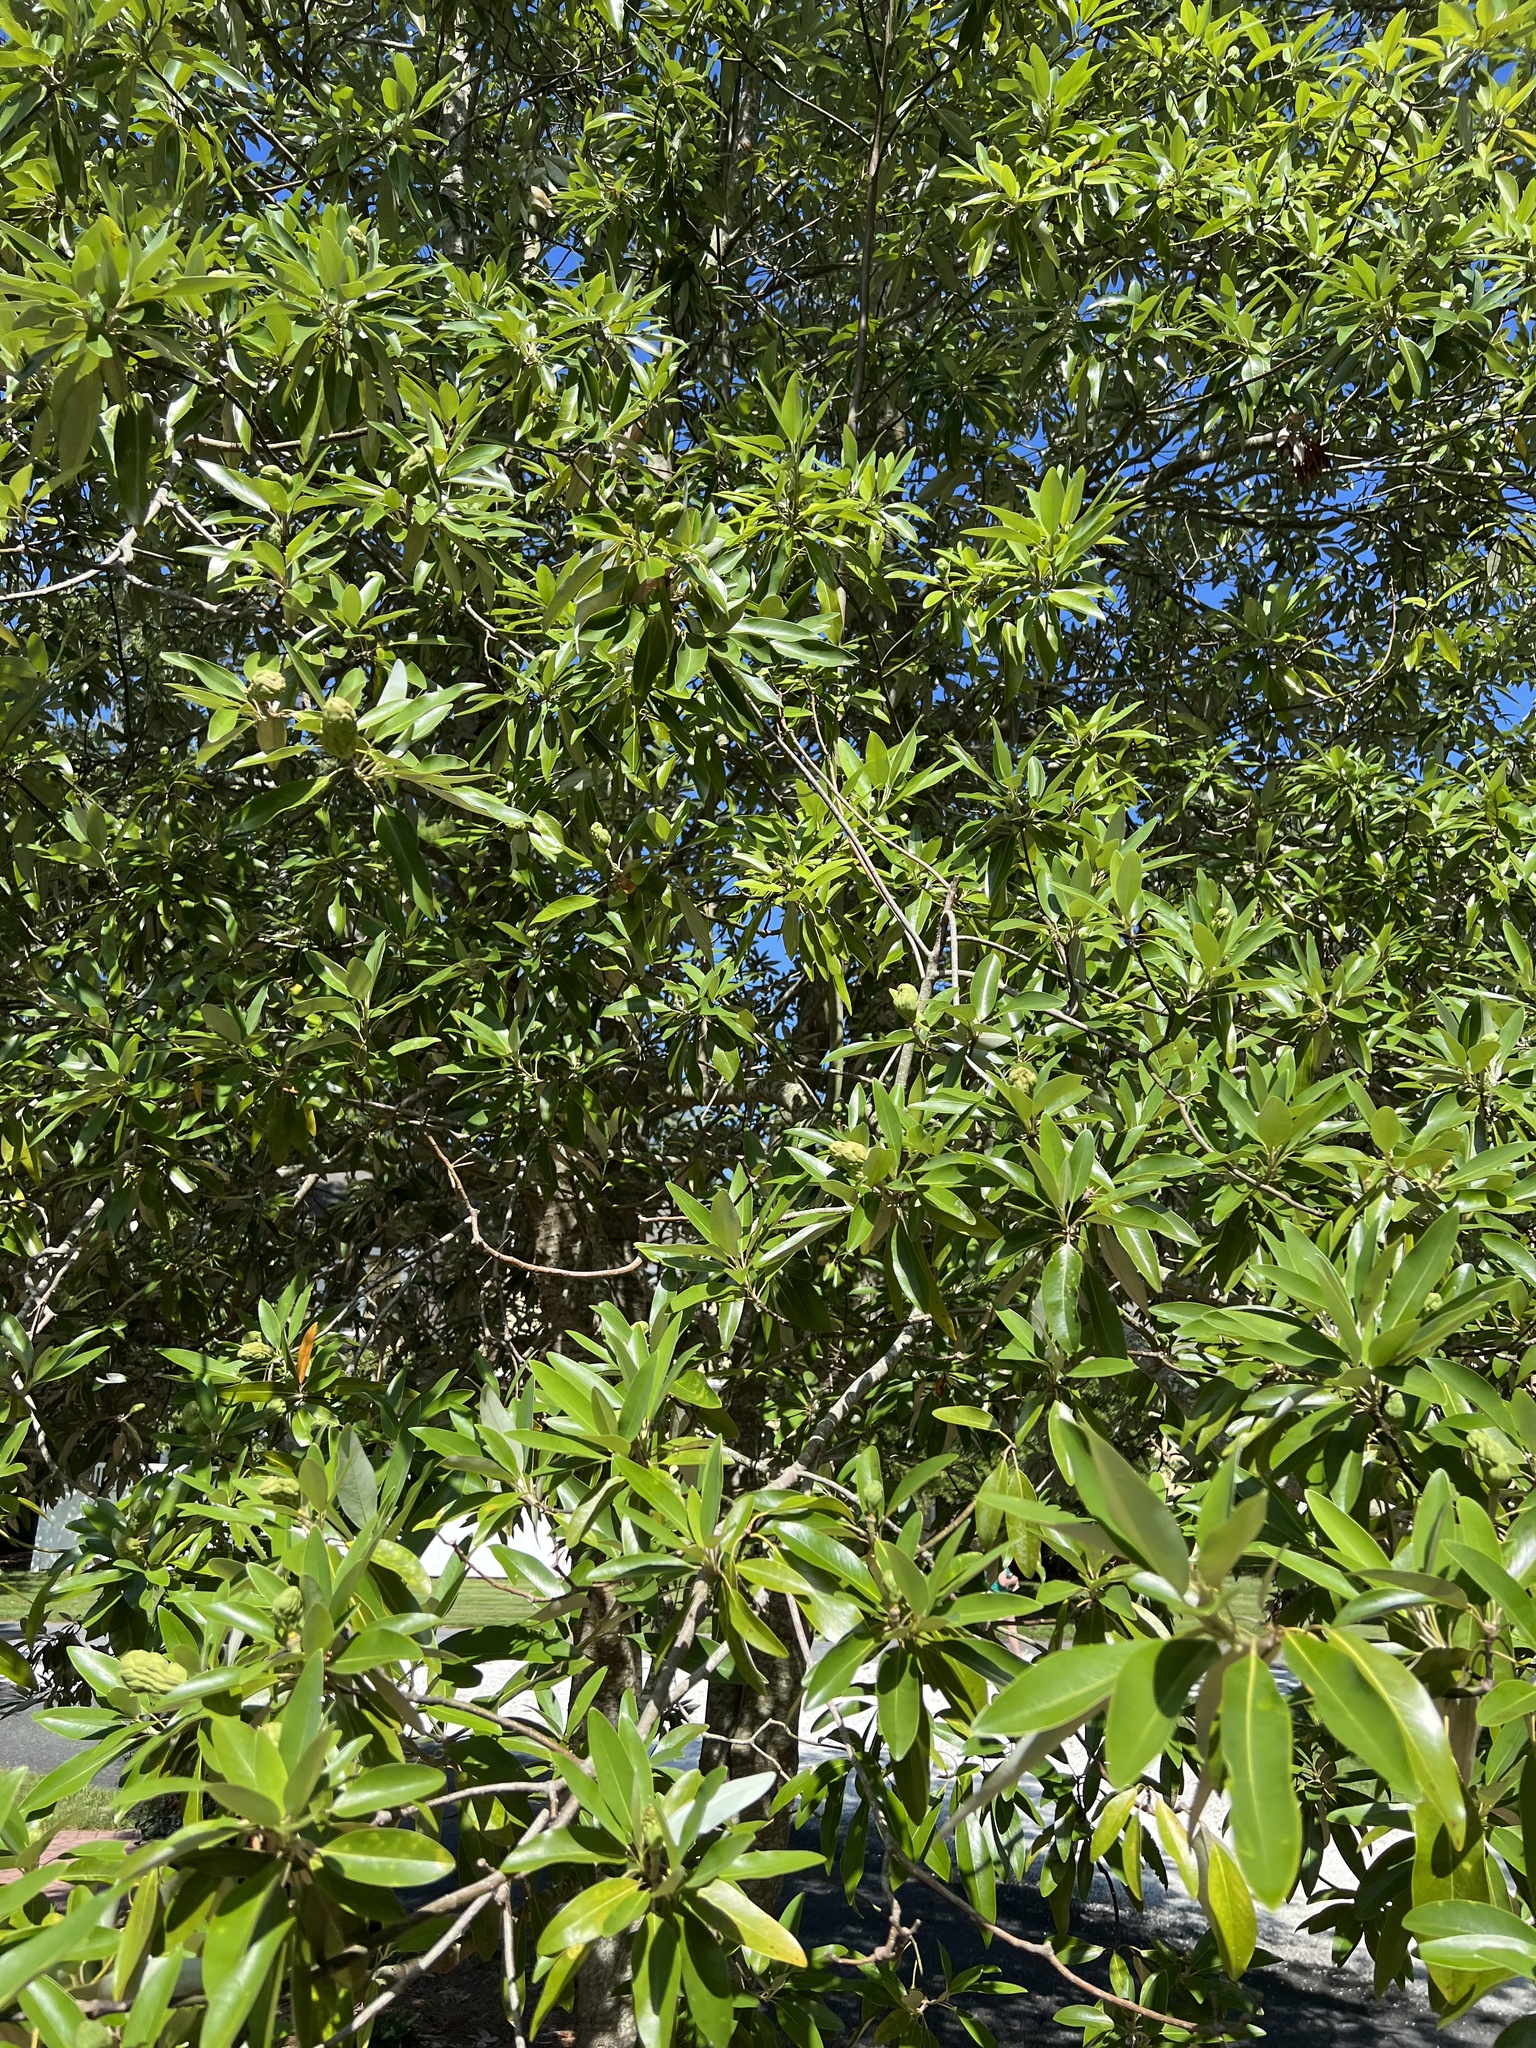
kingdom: Plantae
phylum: Tracheophyta
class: Magnoliopsida
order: Magnoliales
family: Magnoliaceae
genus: Magnolia
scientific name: Magnolia virginiana
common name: Swamp bay
